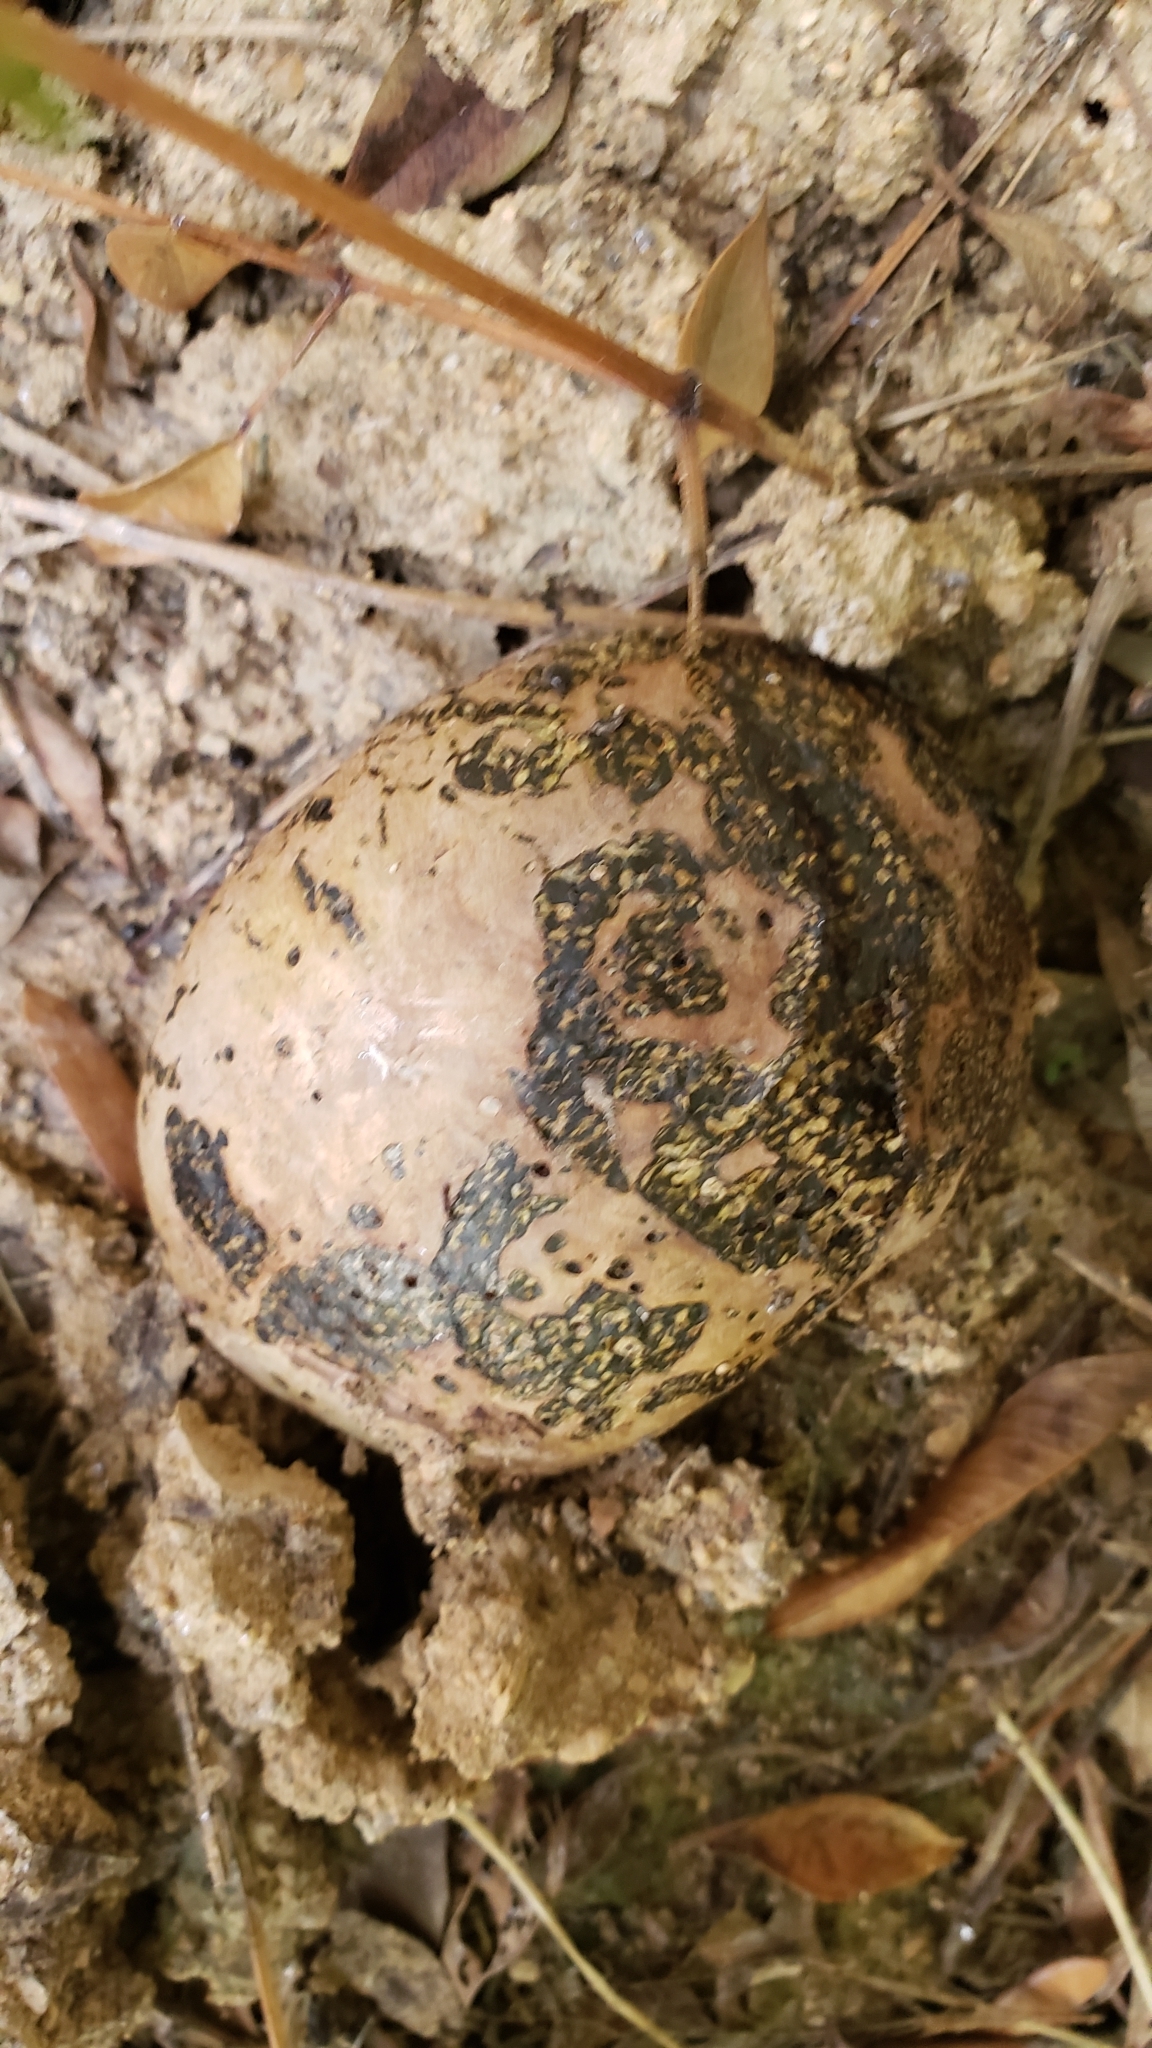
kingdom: Fungi
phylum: Basidiomycota
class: Agaricomycetes
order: Boletales
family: Sclerodermataceae
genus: Pisolithus
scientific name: Pisolithus arenarius
